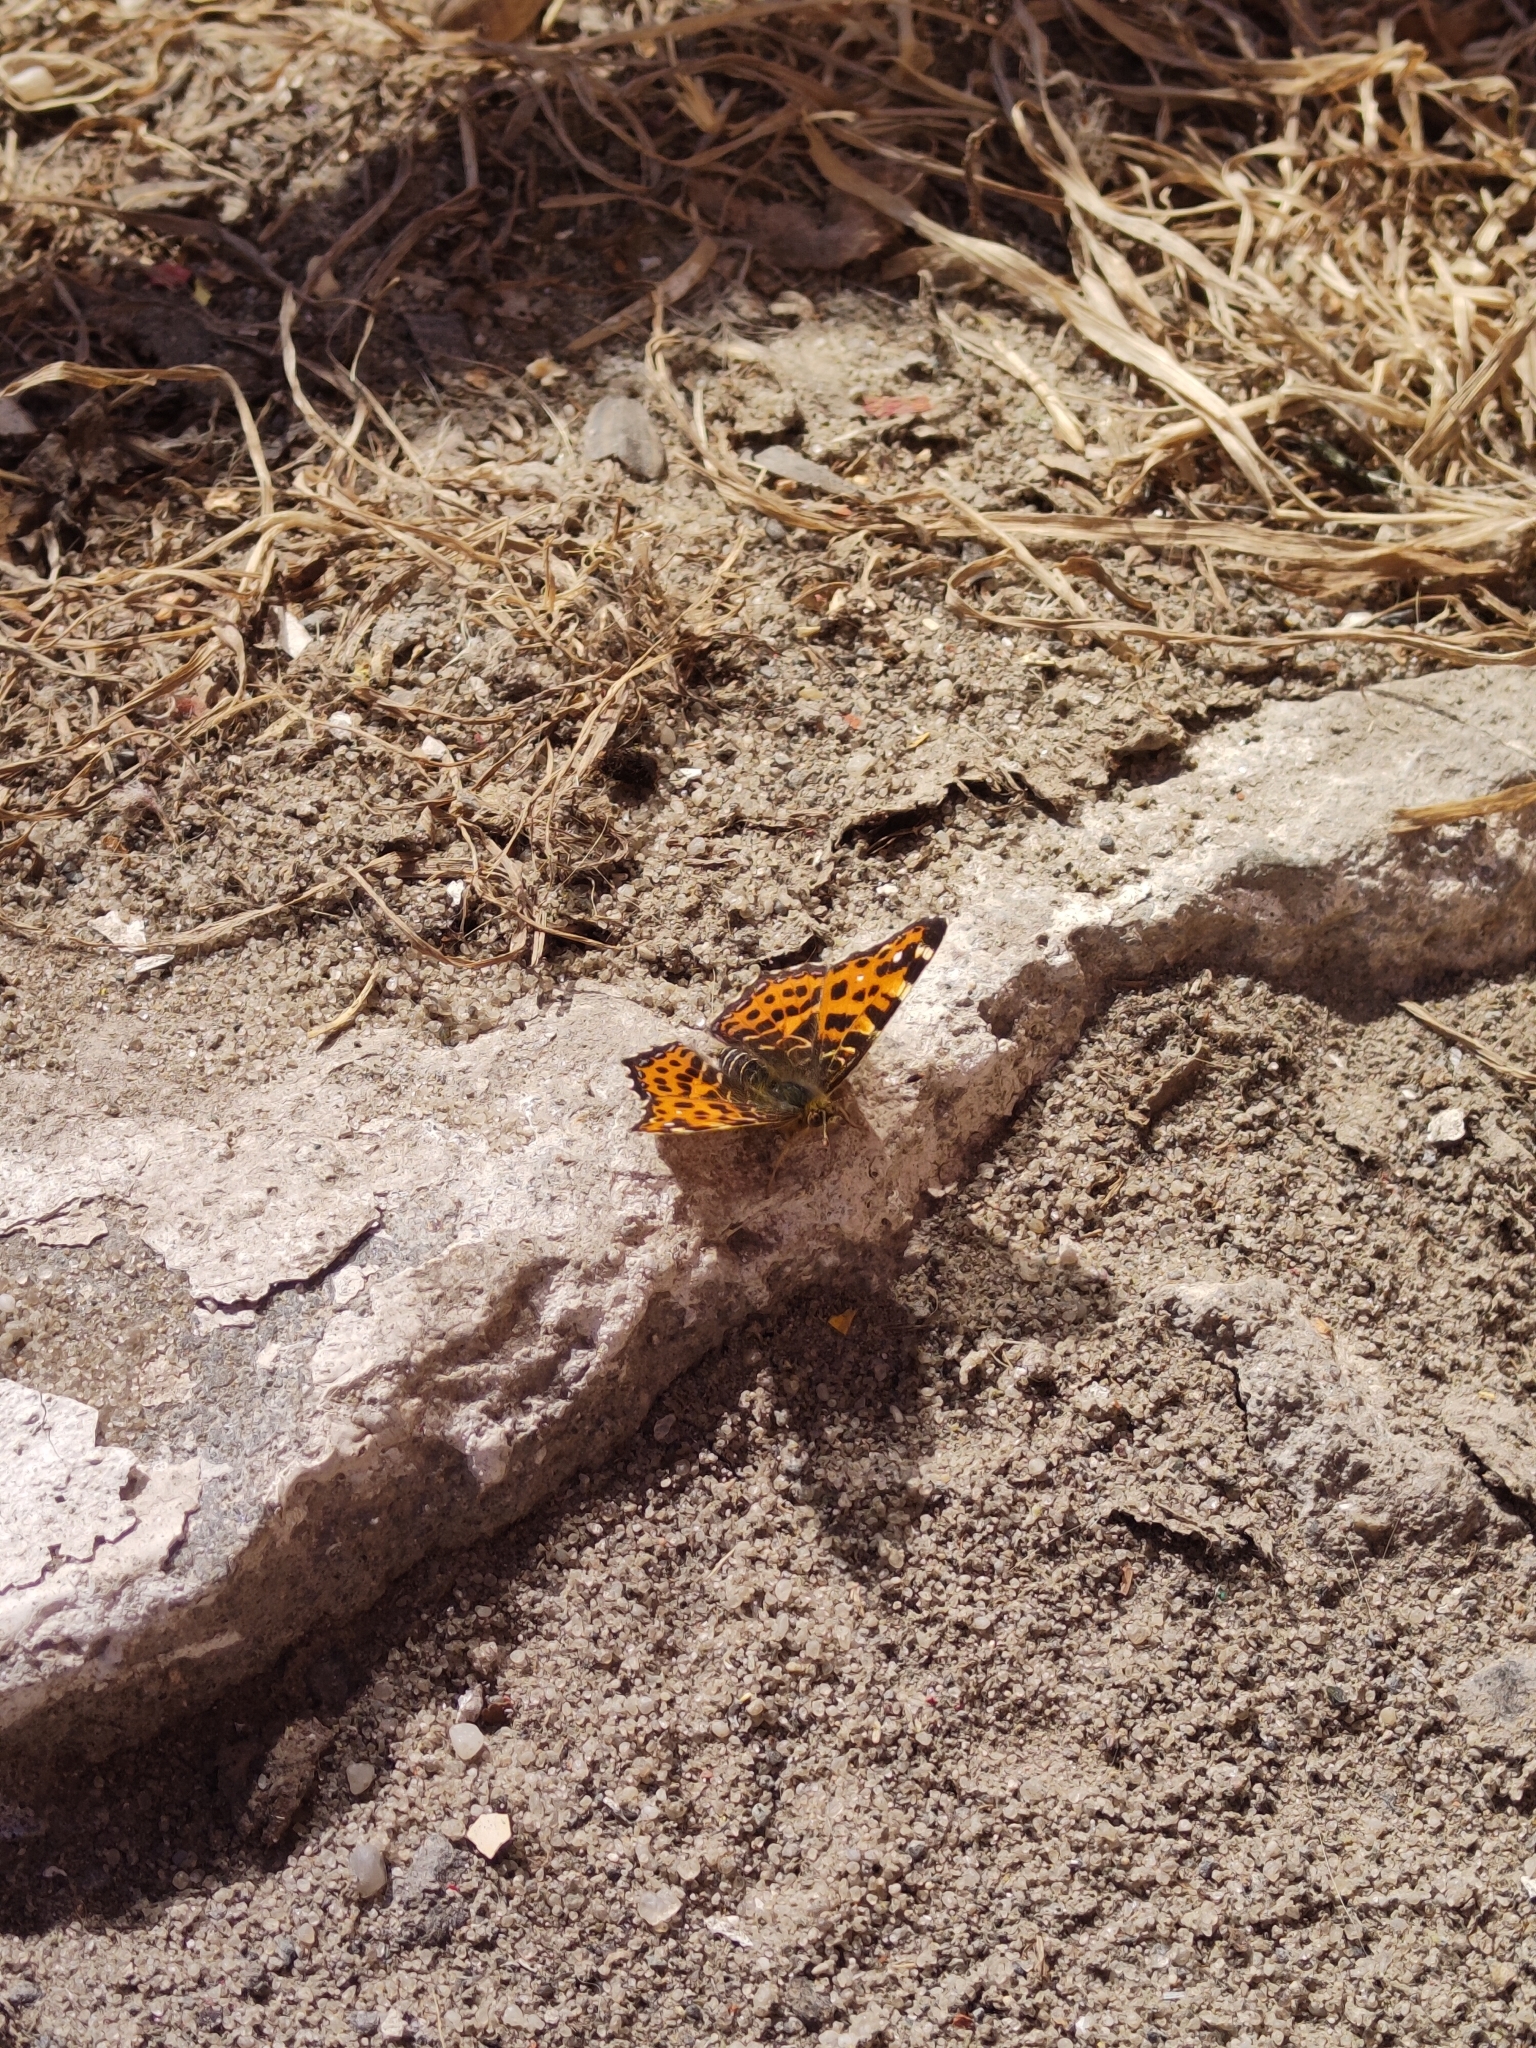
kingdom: Animalia
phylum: Arthropoda
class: Insecta
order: Lepidoptera
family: Nymphalidae
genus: Araschnia
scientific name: Araschnia levana
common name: Map butterfly
